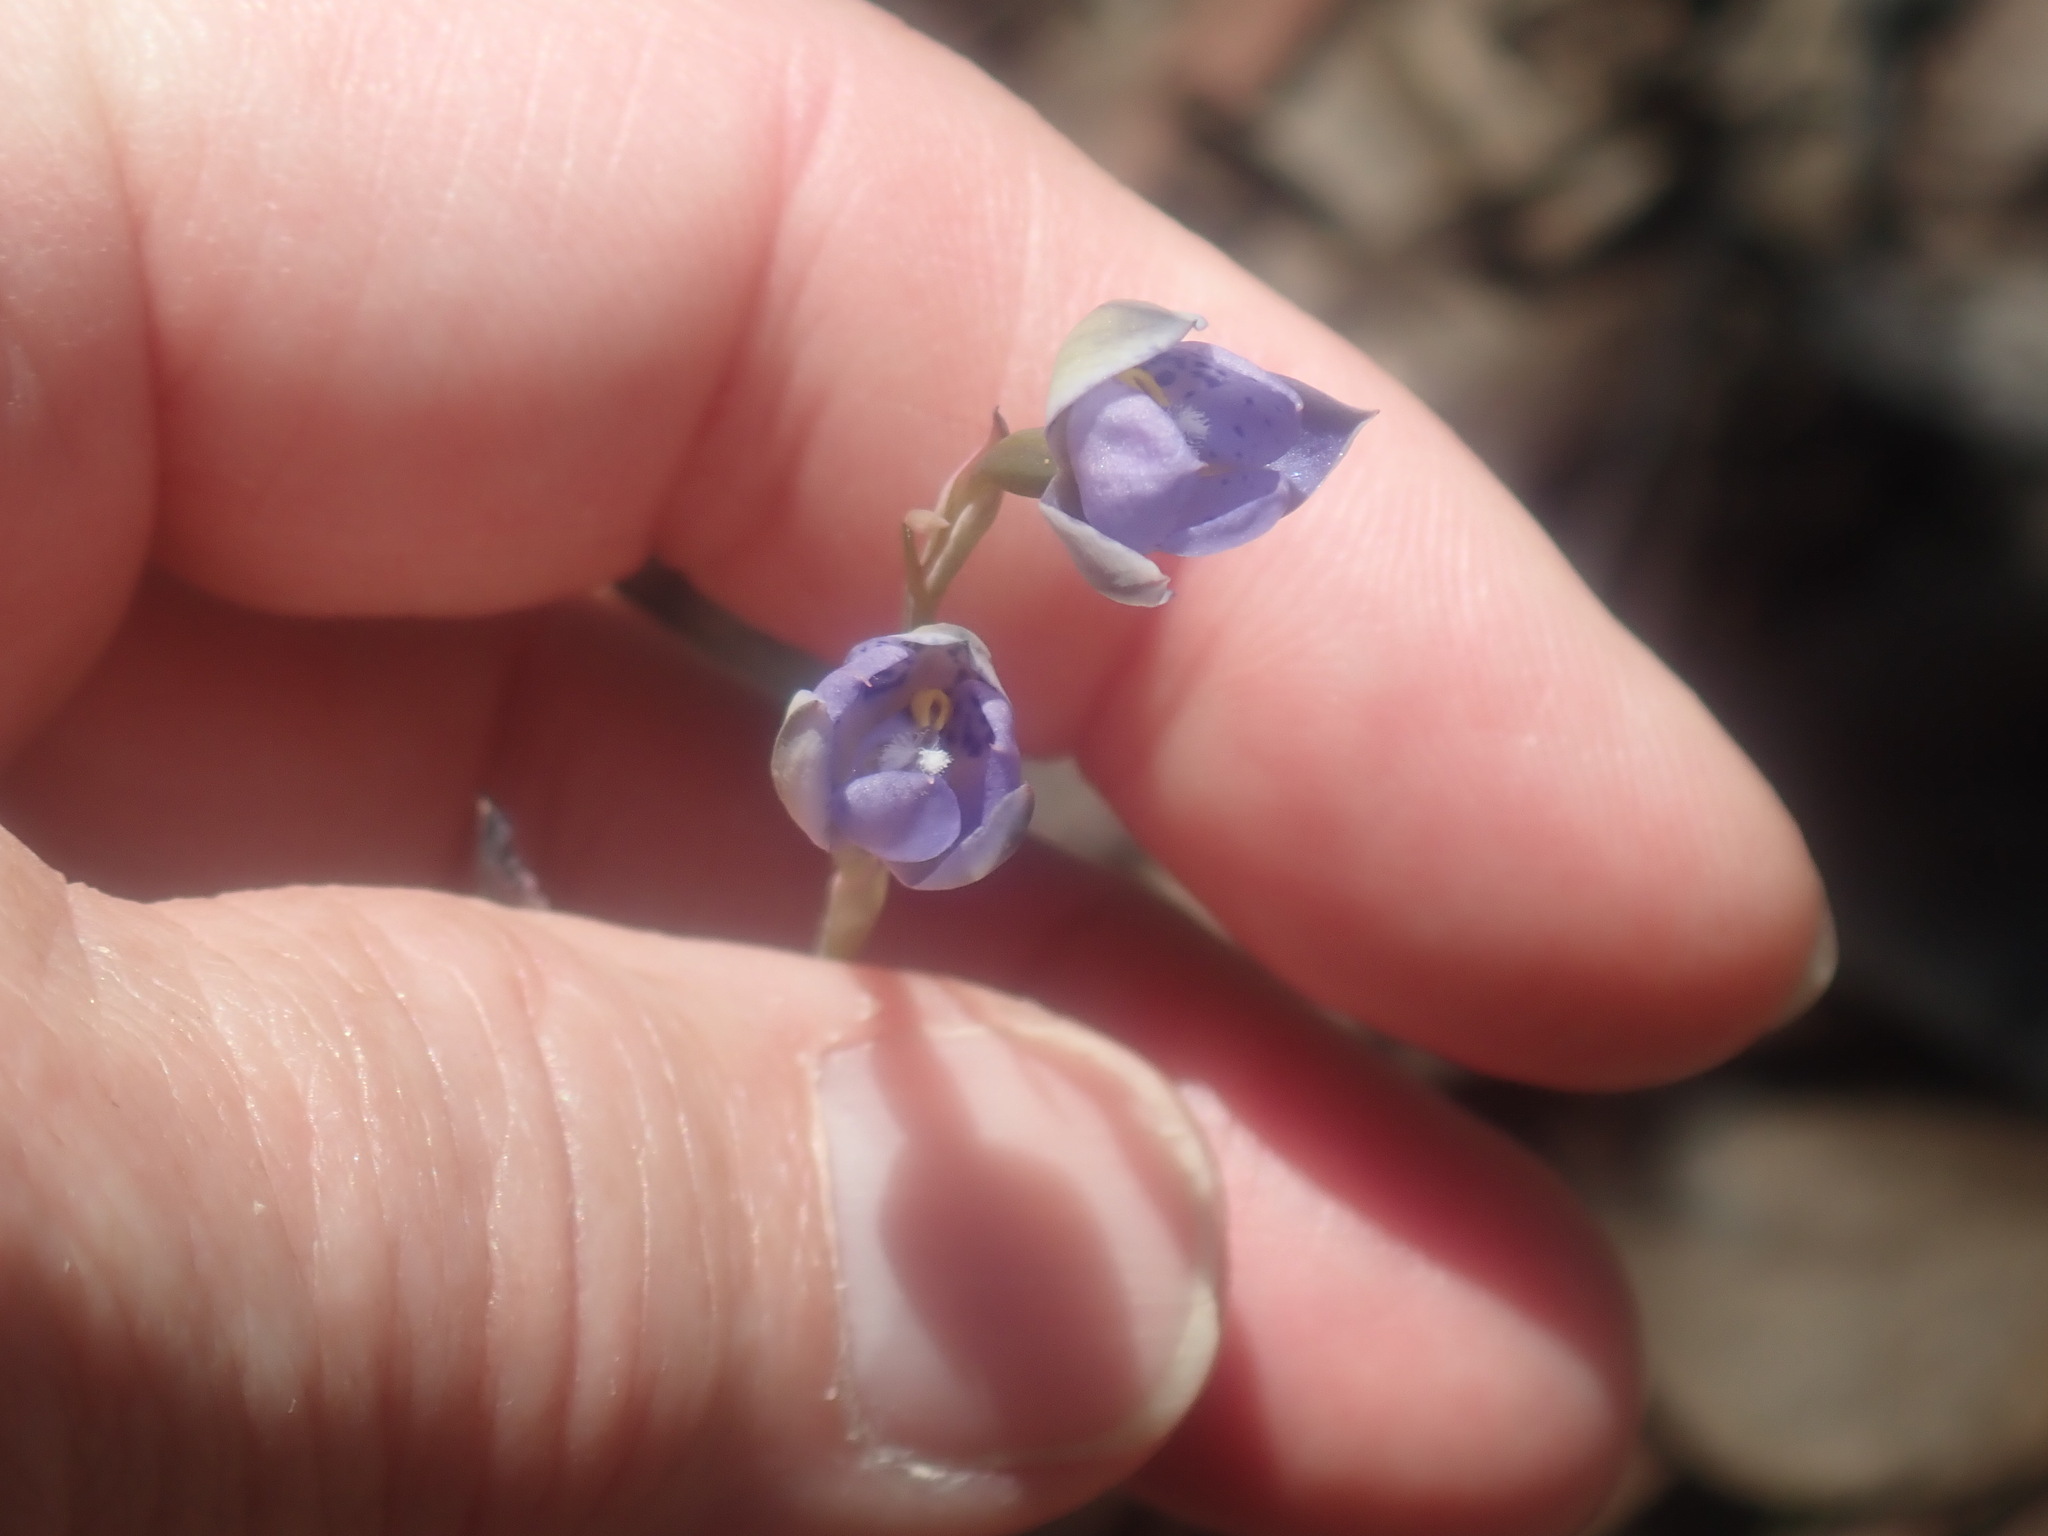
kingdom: Plantae
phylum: Tracheophyta
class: Liliopsida
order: Asparagales
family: Orchidaceae
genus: Thelymitra
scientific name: Thelymitra truncata
